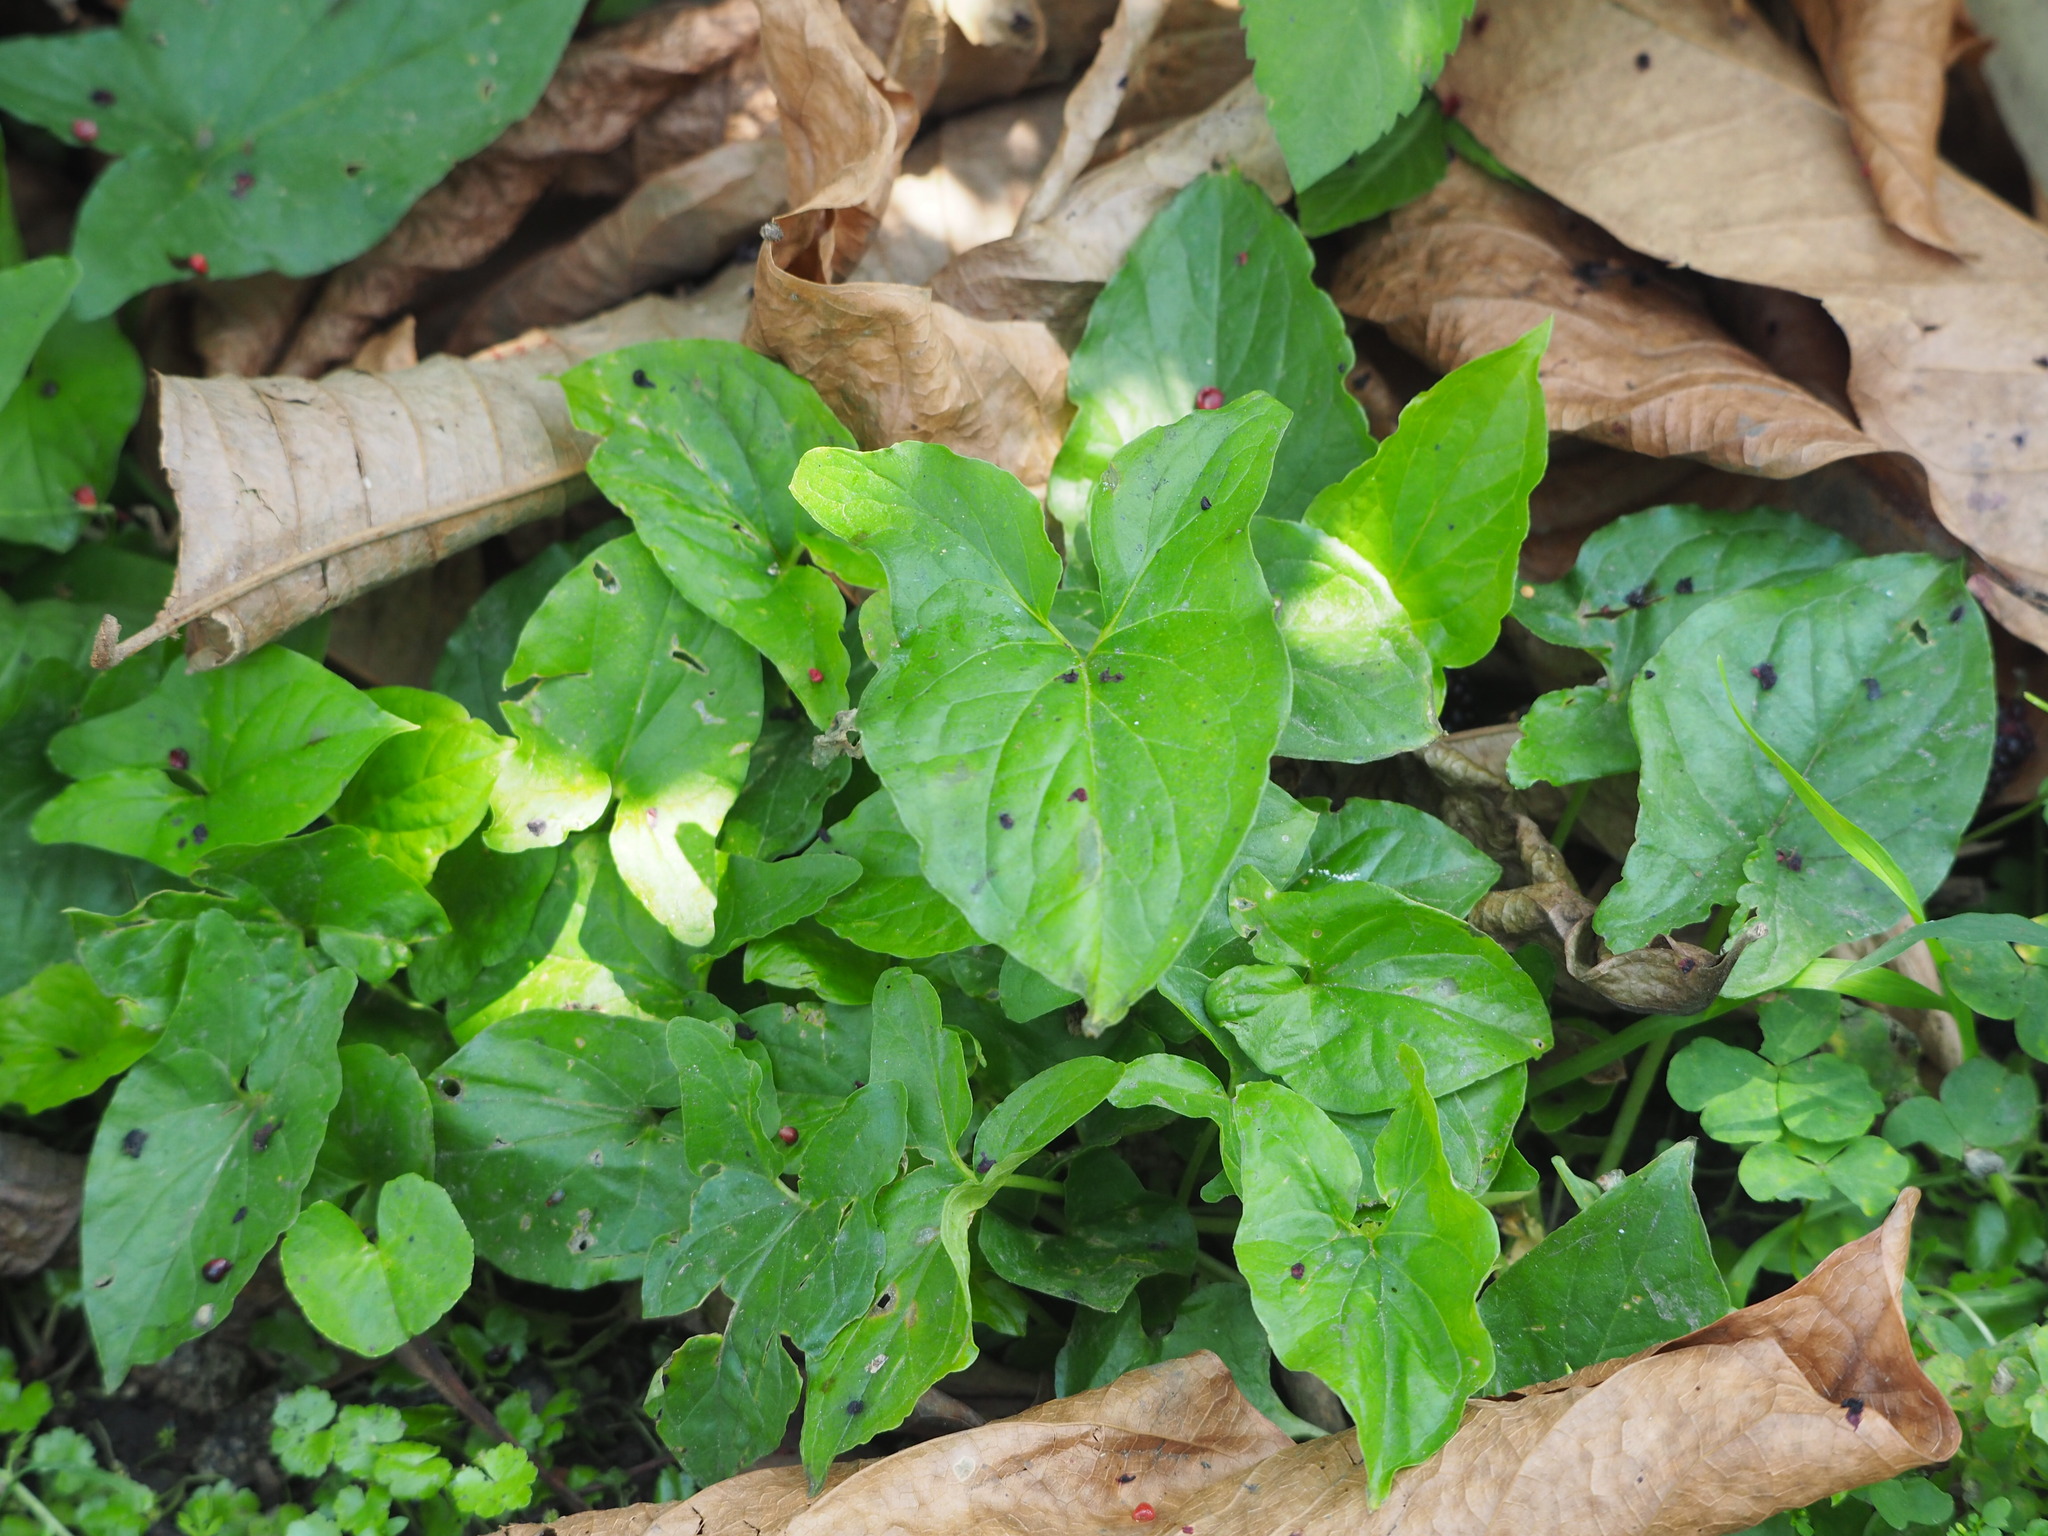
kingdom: Plantae
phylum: Tracheophyta
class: Liliopsida
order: Alismatales
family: Araceae
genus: Typhonium
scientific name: Typhonium blumei
